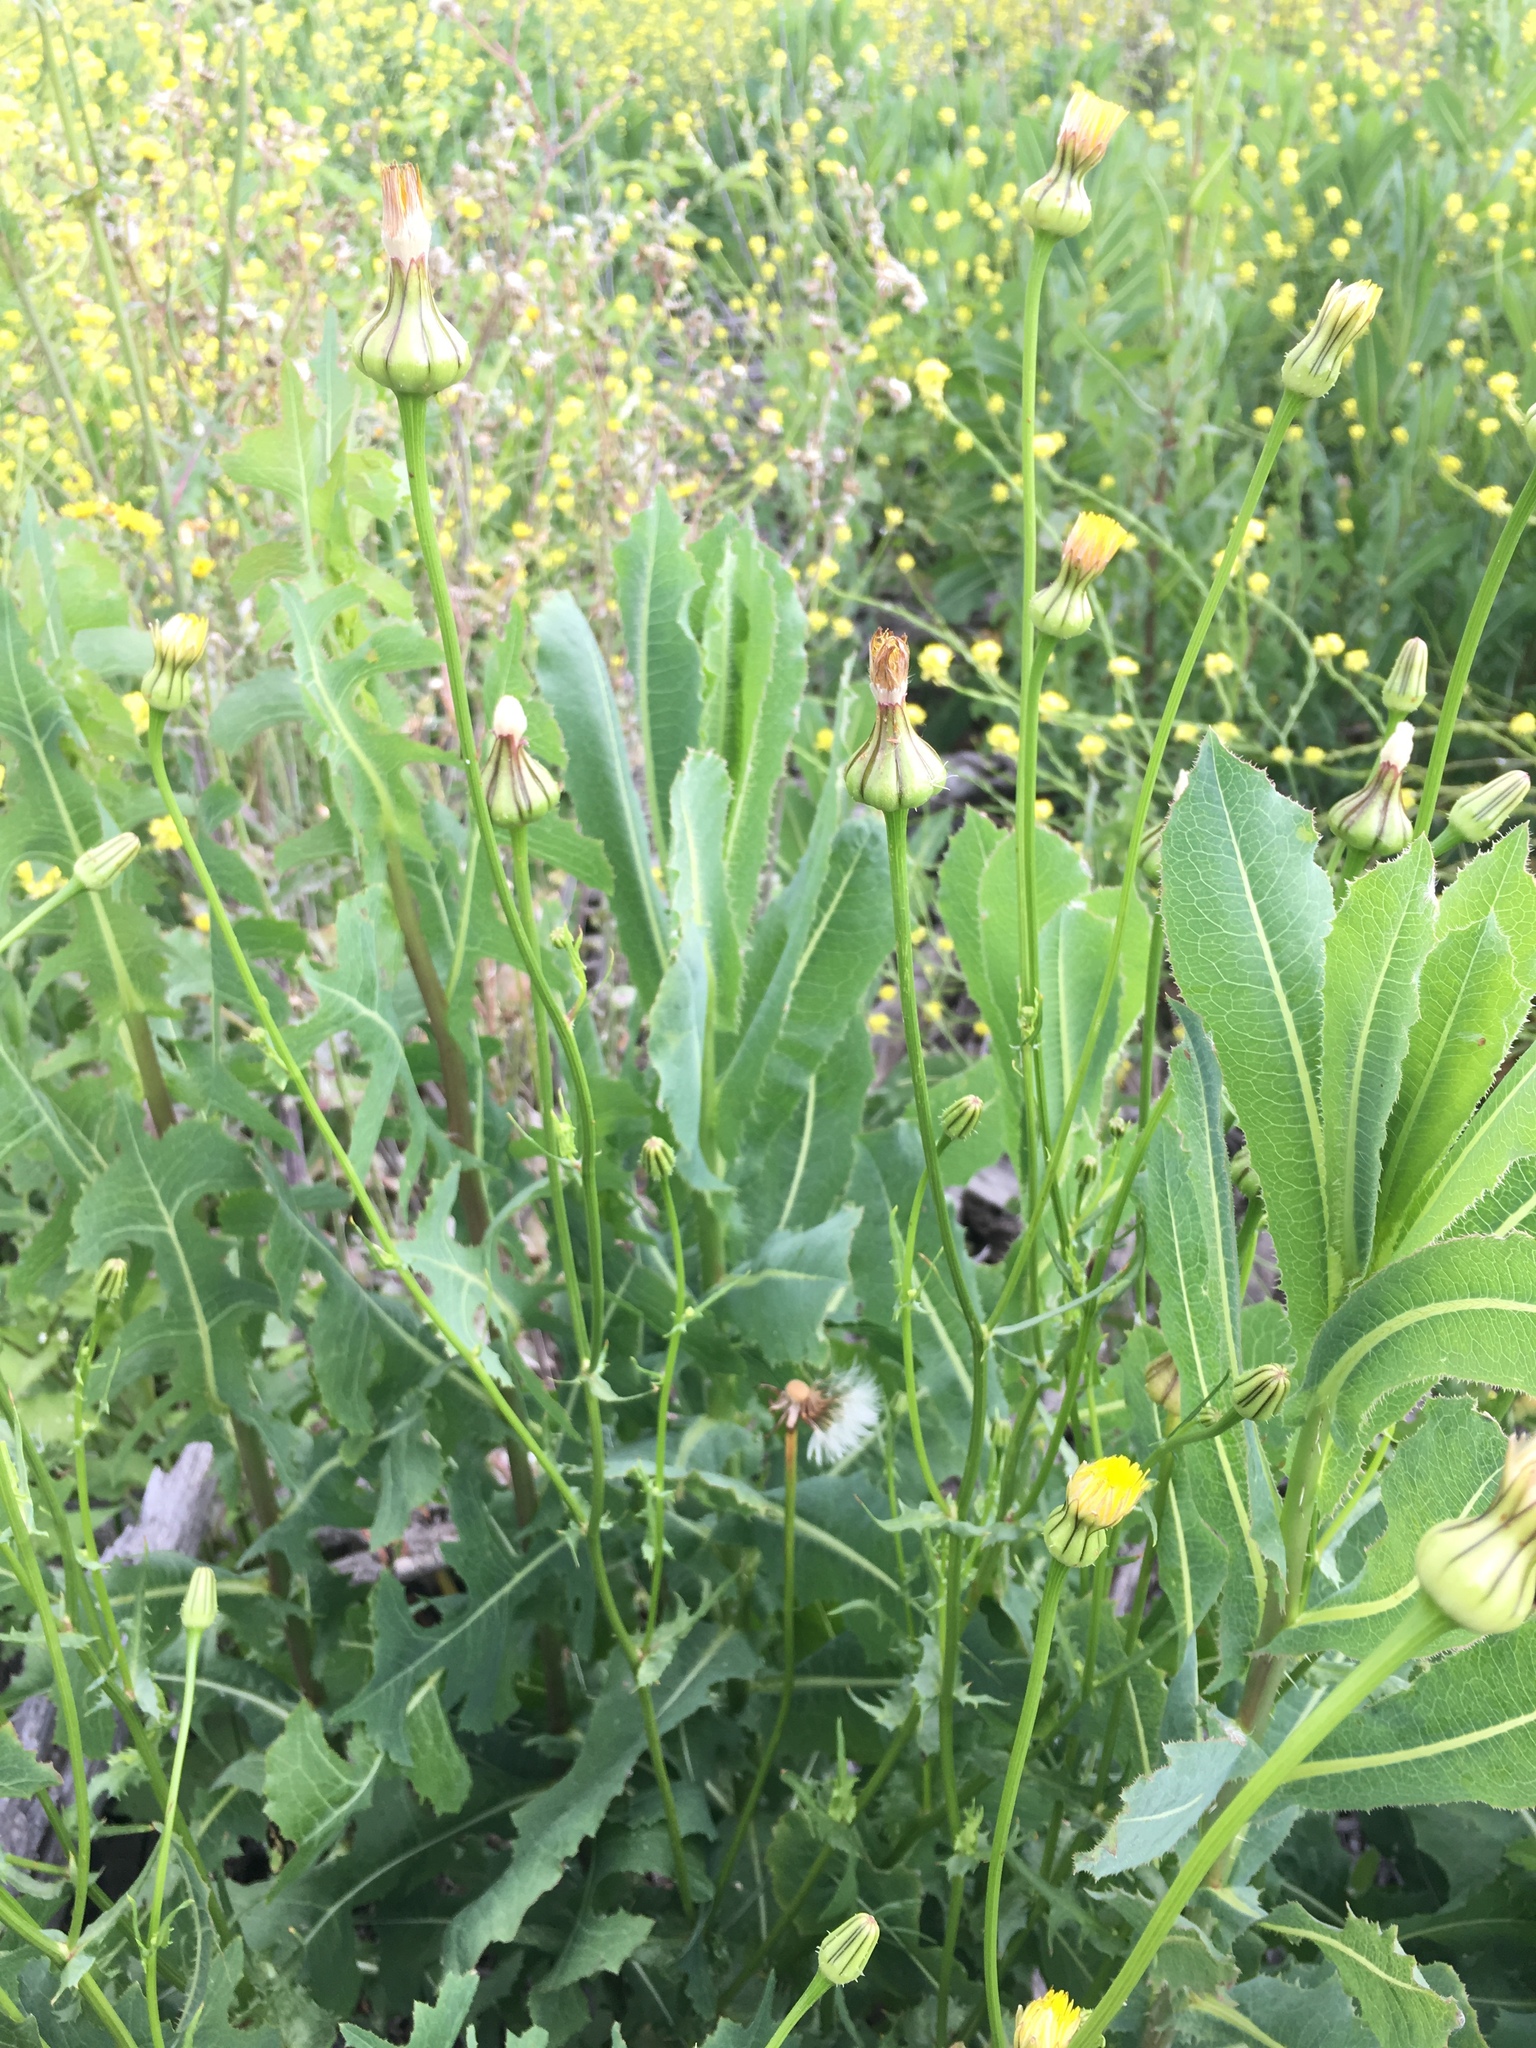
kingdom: Plantae
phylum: Tracheophyta
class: Magnoliopsida
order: Asterales
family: Asteraceae
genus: Urospermum
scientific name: Urospermum picroides
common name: False hawkbit
